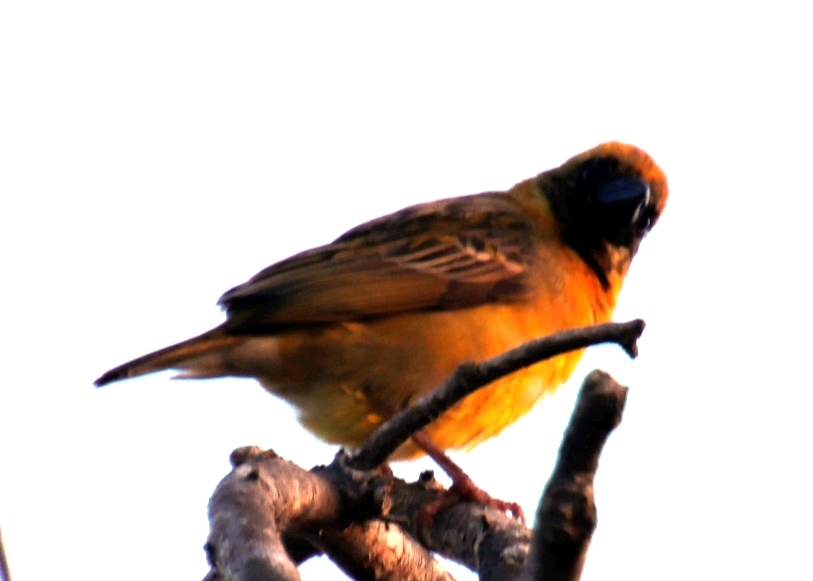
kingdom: Animalia
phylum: Chordata
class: Aves
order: Passeriformes
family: Ploceidae
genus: Ploceus
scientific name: Ploceus velatus
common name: Southern masked weaver
